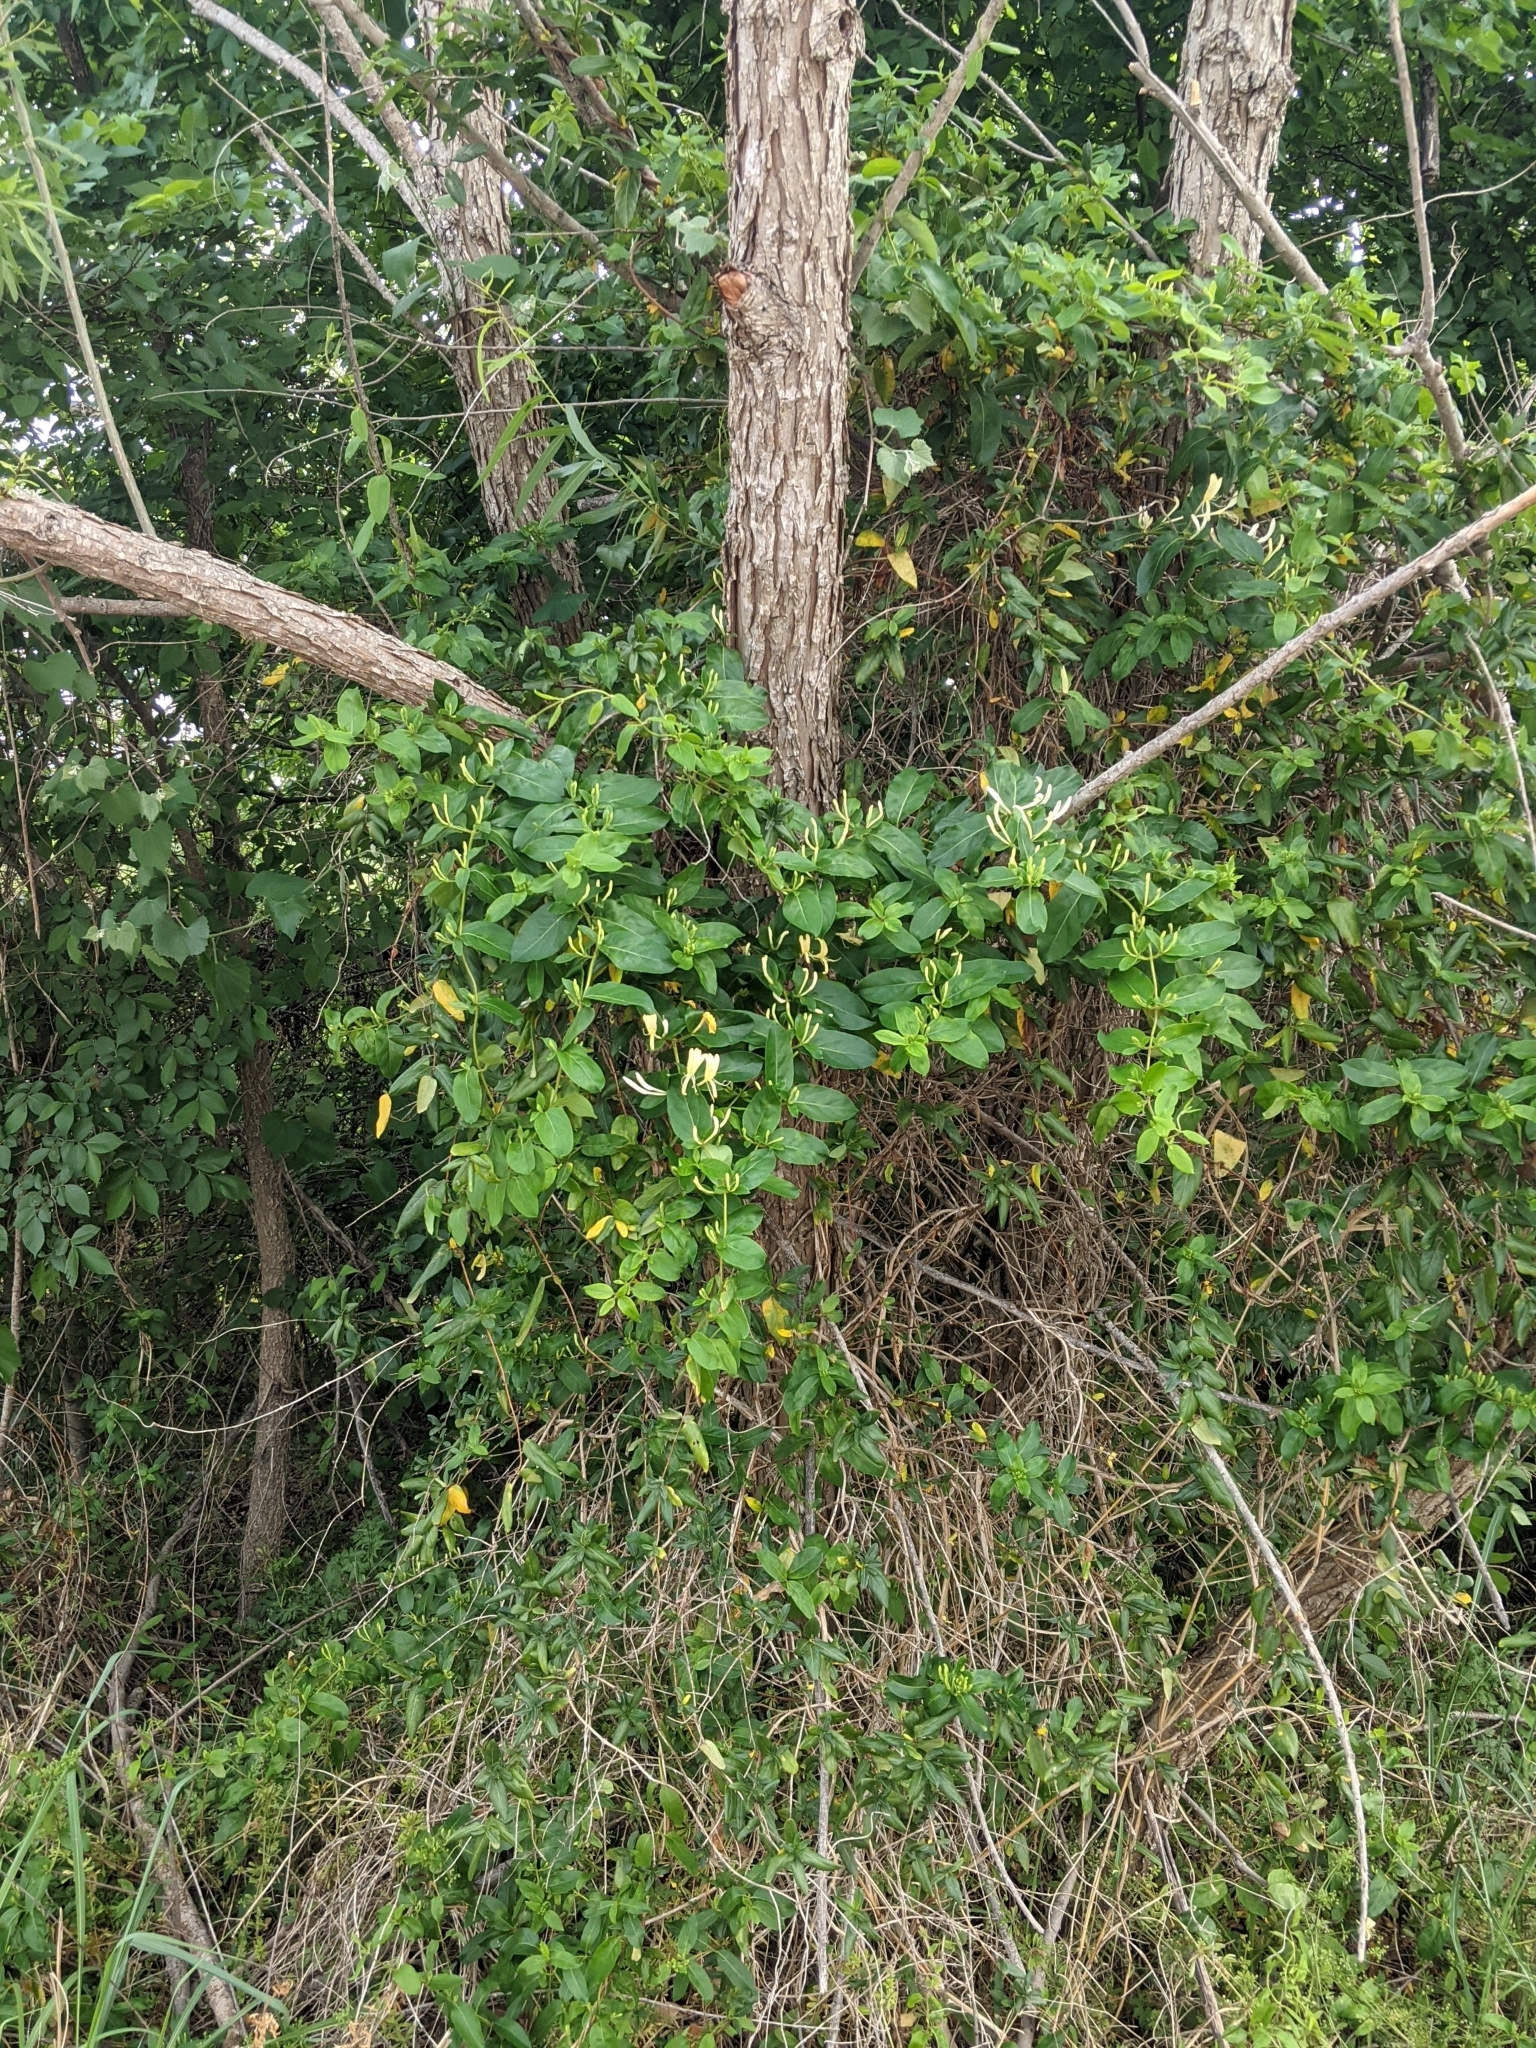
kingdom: Plantae
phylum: Tracheophyta
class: Magnoliopsida
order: Dipsacales
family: Caprifoliaceae
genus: Lonicera
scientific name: Lonicera japonica
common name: Japanese honeysuckle
